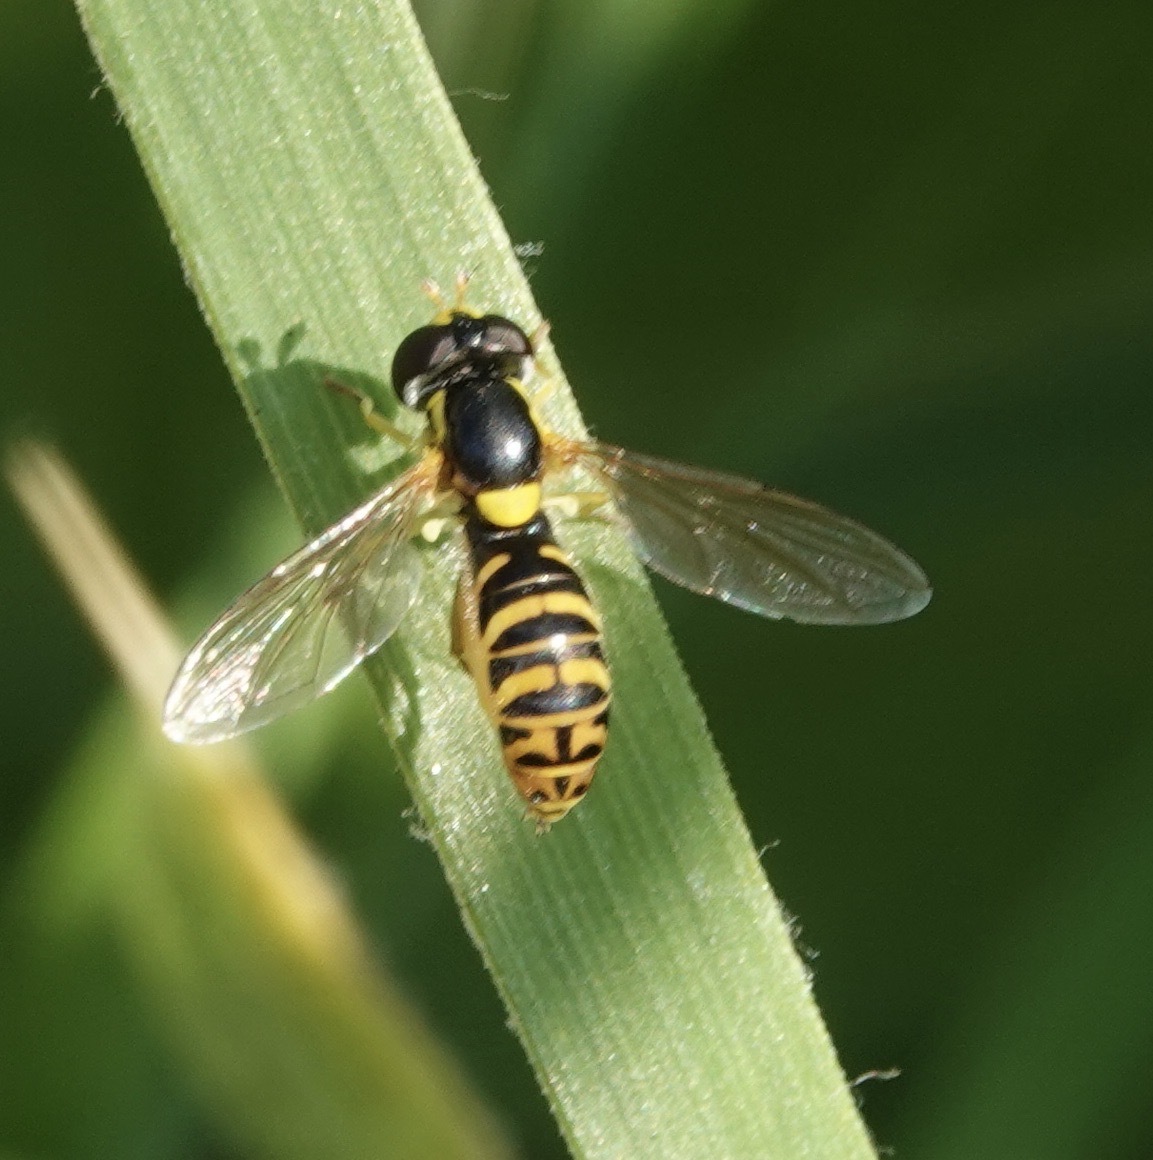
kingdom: Animalia
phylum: Arthropoda
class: Insecta
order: Diptera
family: Syrphidae
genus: Sphaerophoria
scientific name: Sphaerophoria rueppellii
